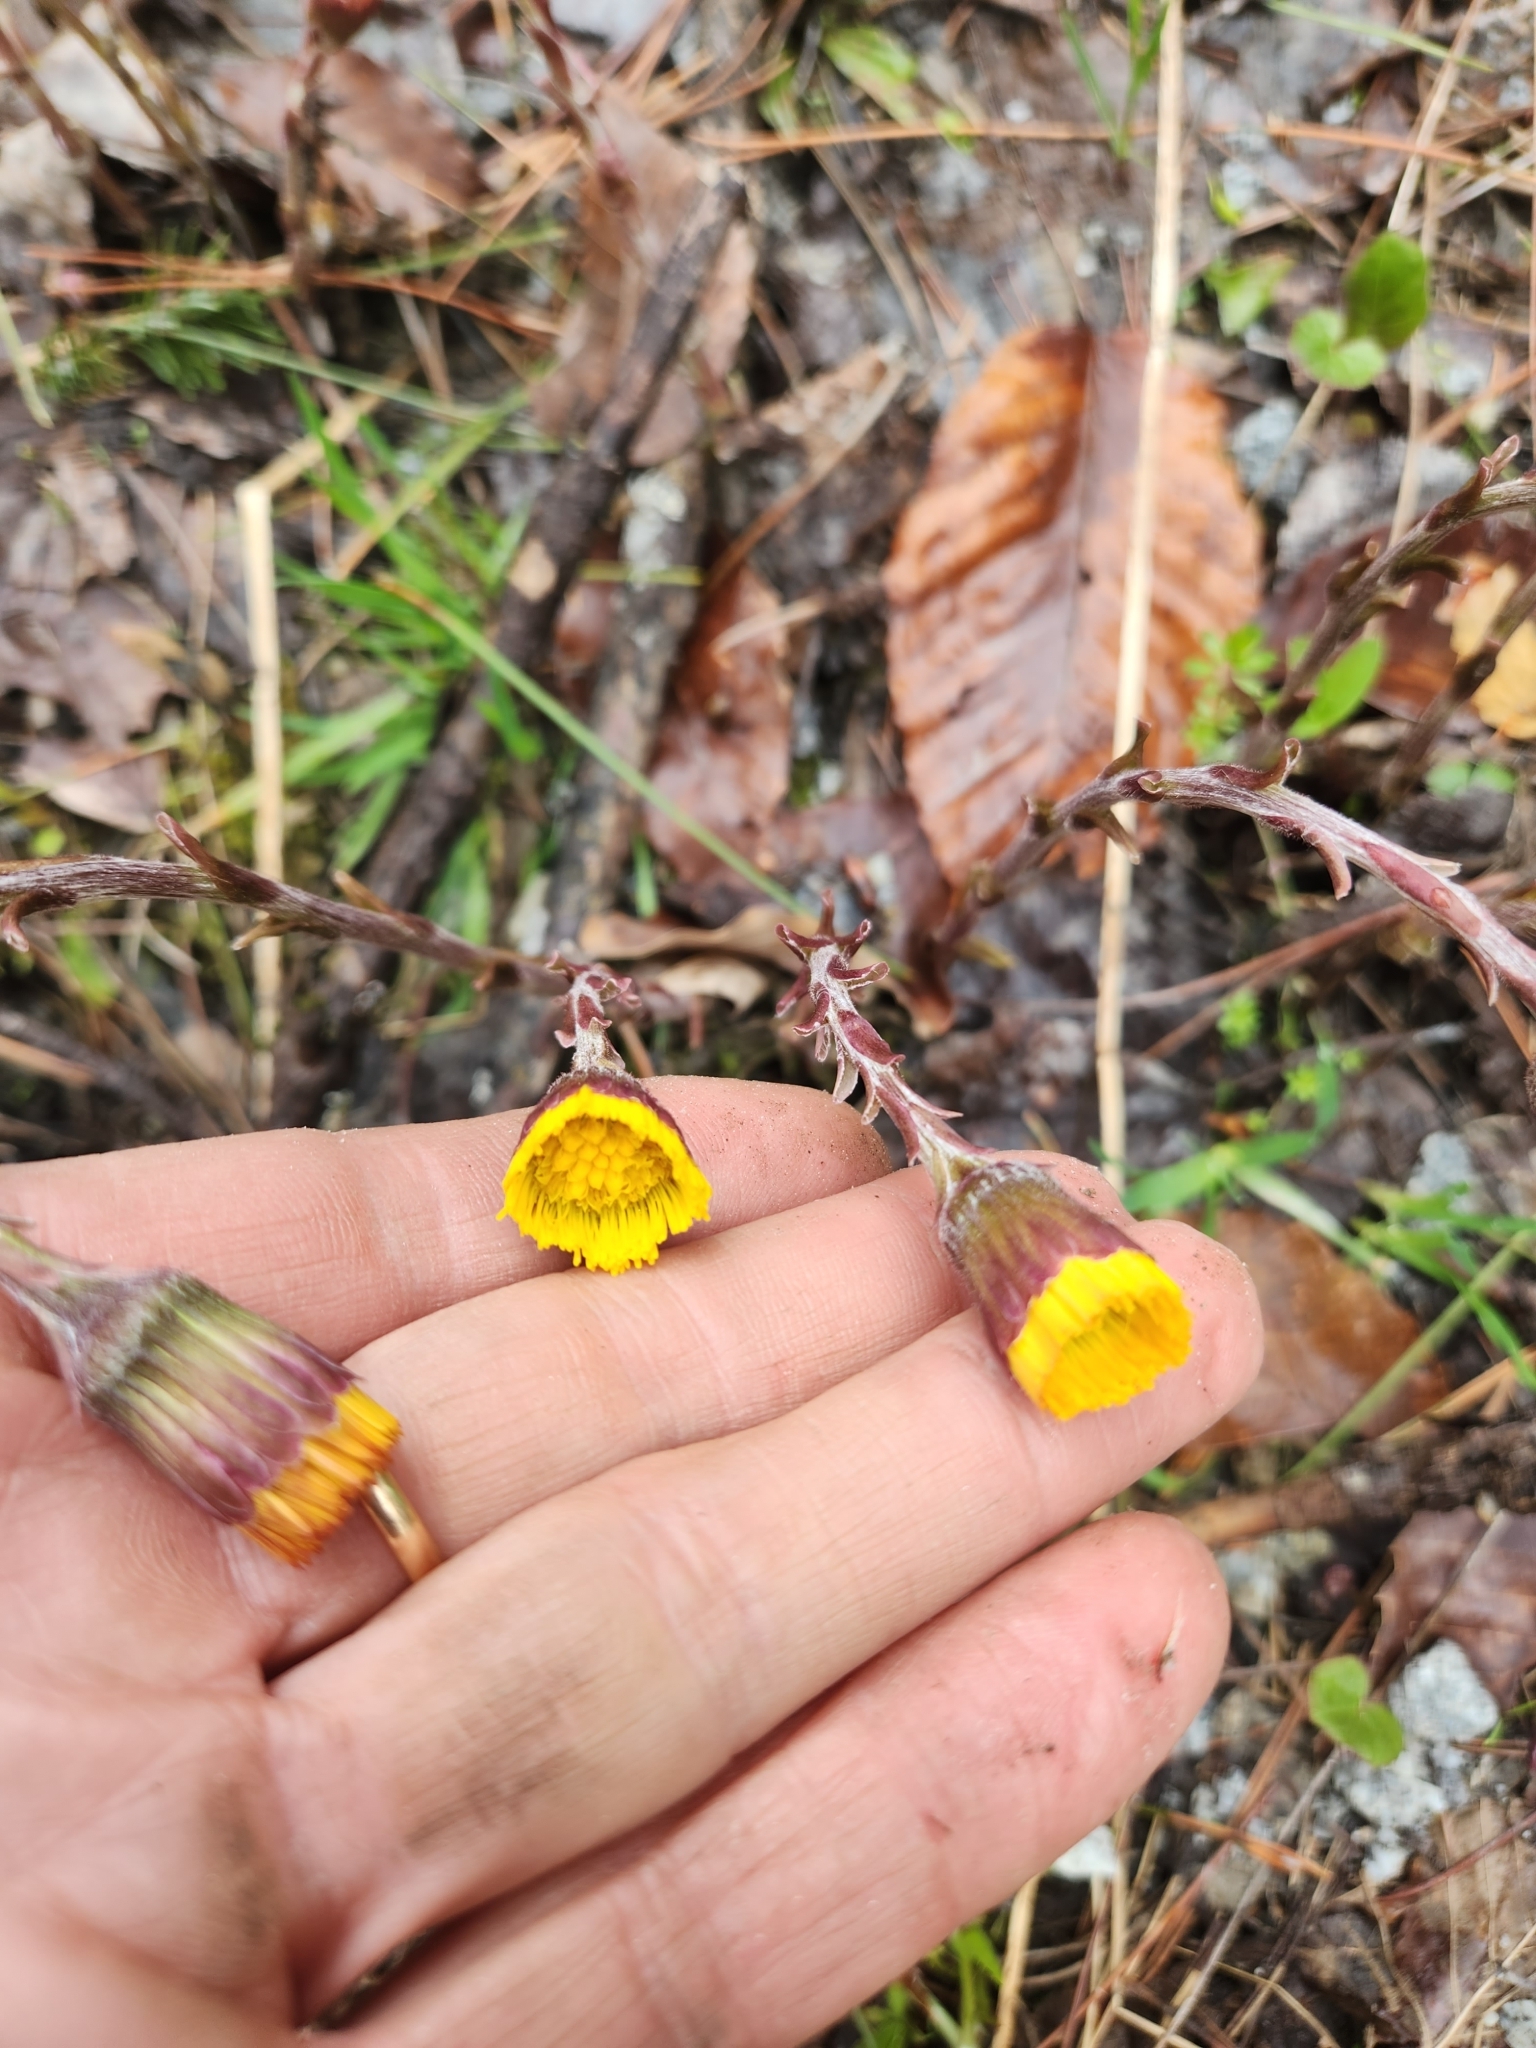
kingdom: Plantae
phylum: Tracheophyta
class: Magnoliopsida
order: Asterales
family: Asteraceae
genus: Tussilago
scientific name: Tussilago farfara
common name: Coltsfoot
